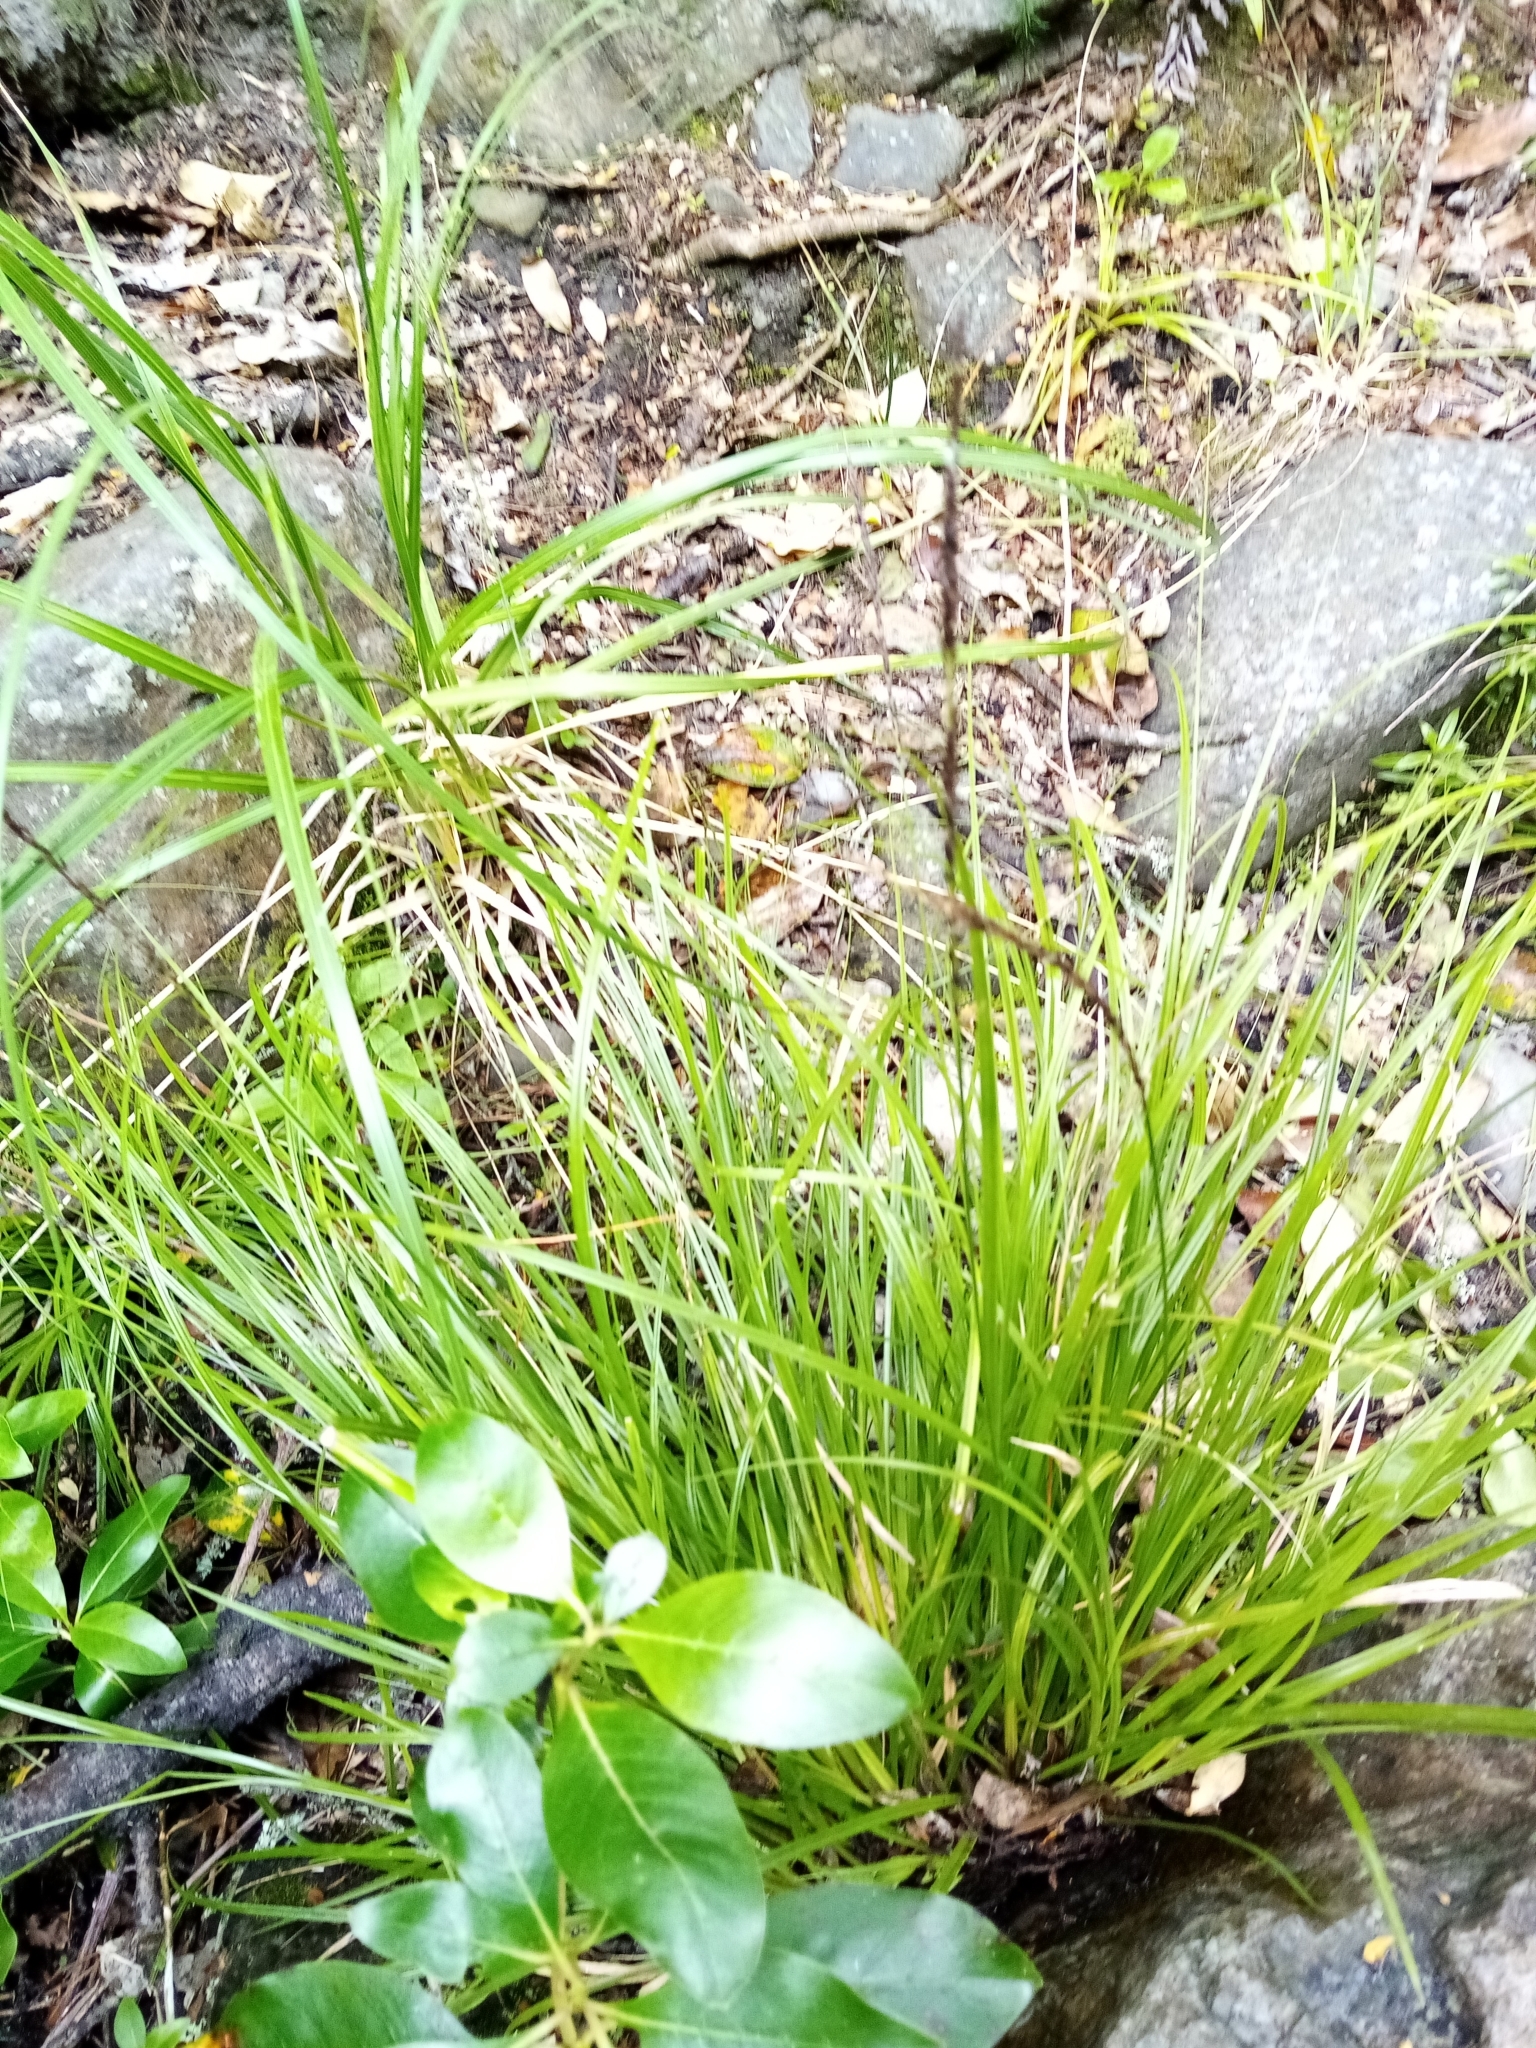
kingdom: Plantae
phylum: Tracheophyta
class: Liliopsida
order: Poales
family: Cyperaceae
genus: Carex
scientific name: Carex corynoidea
